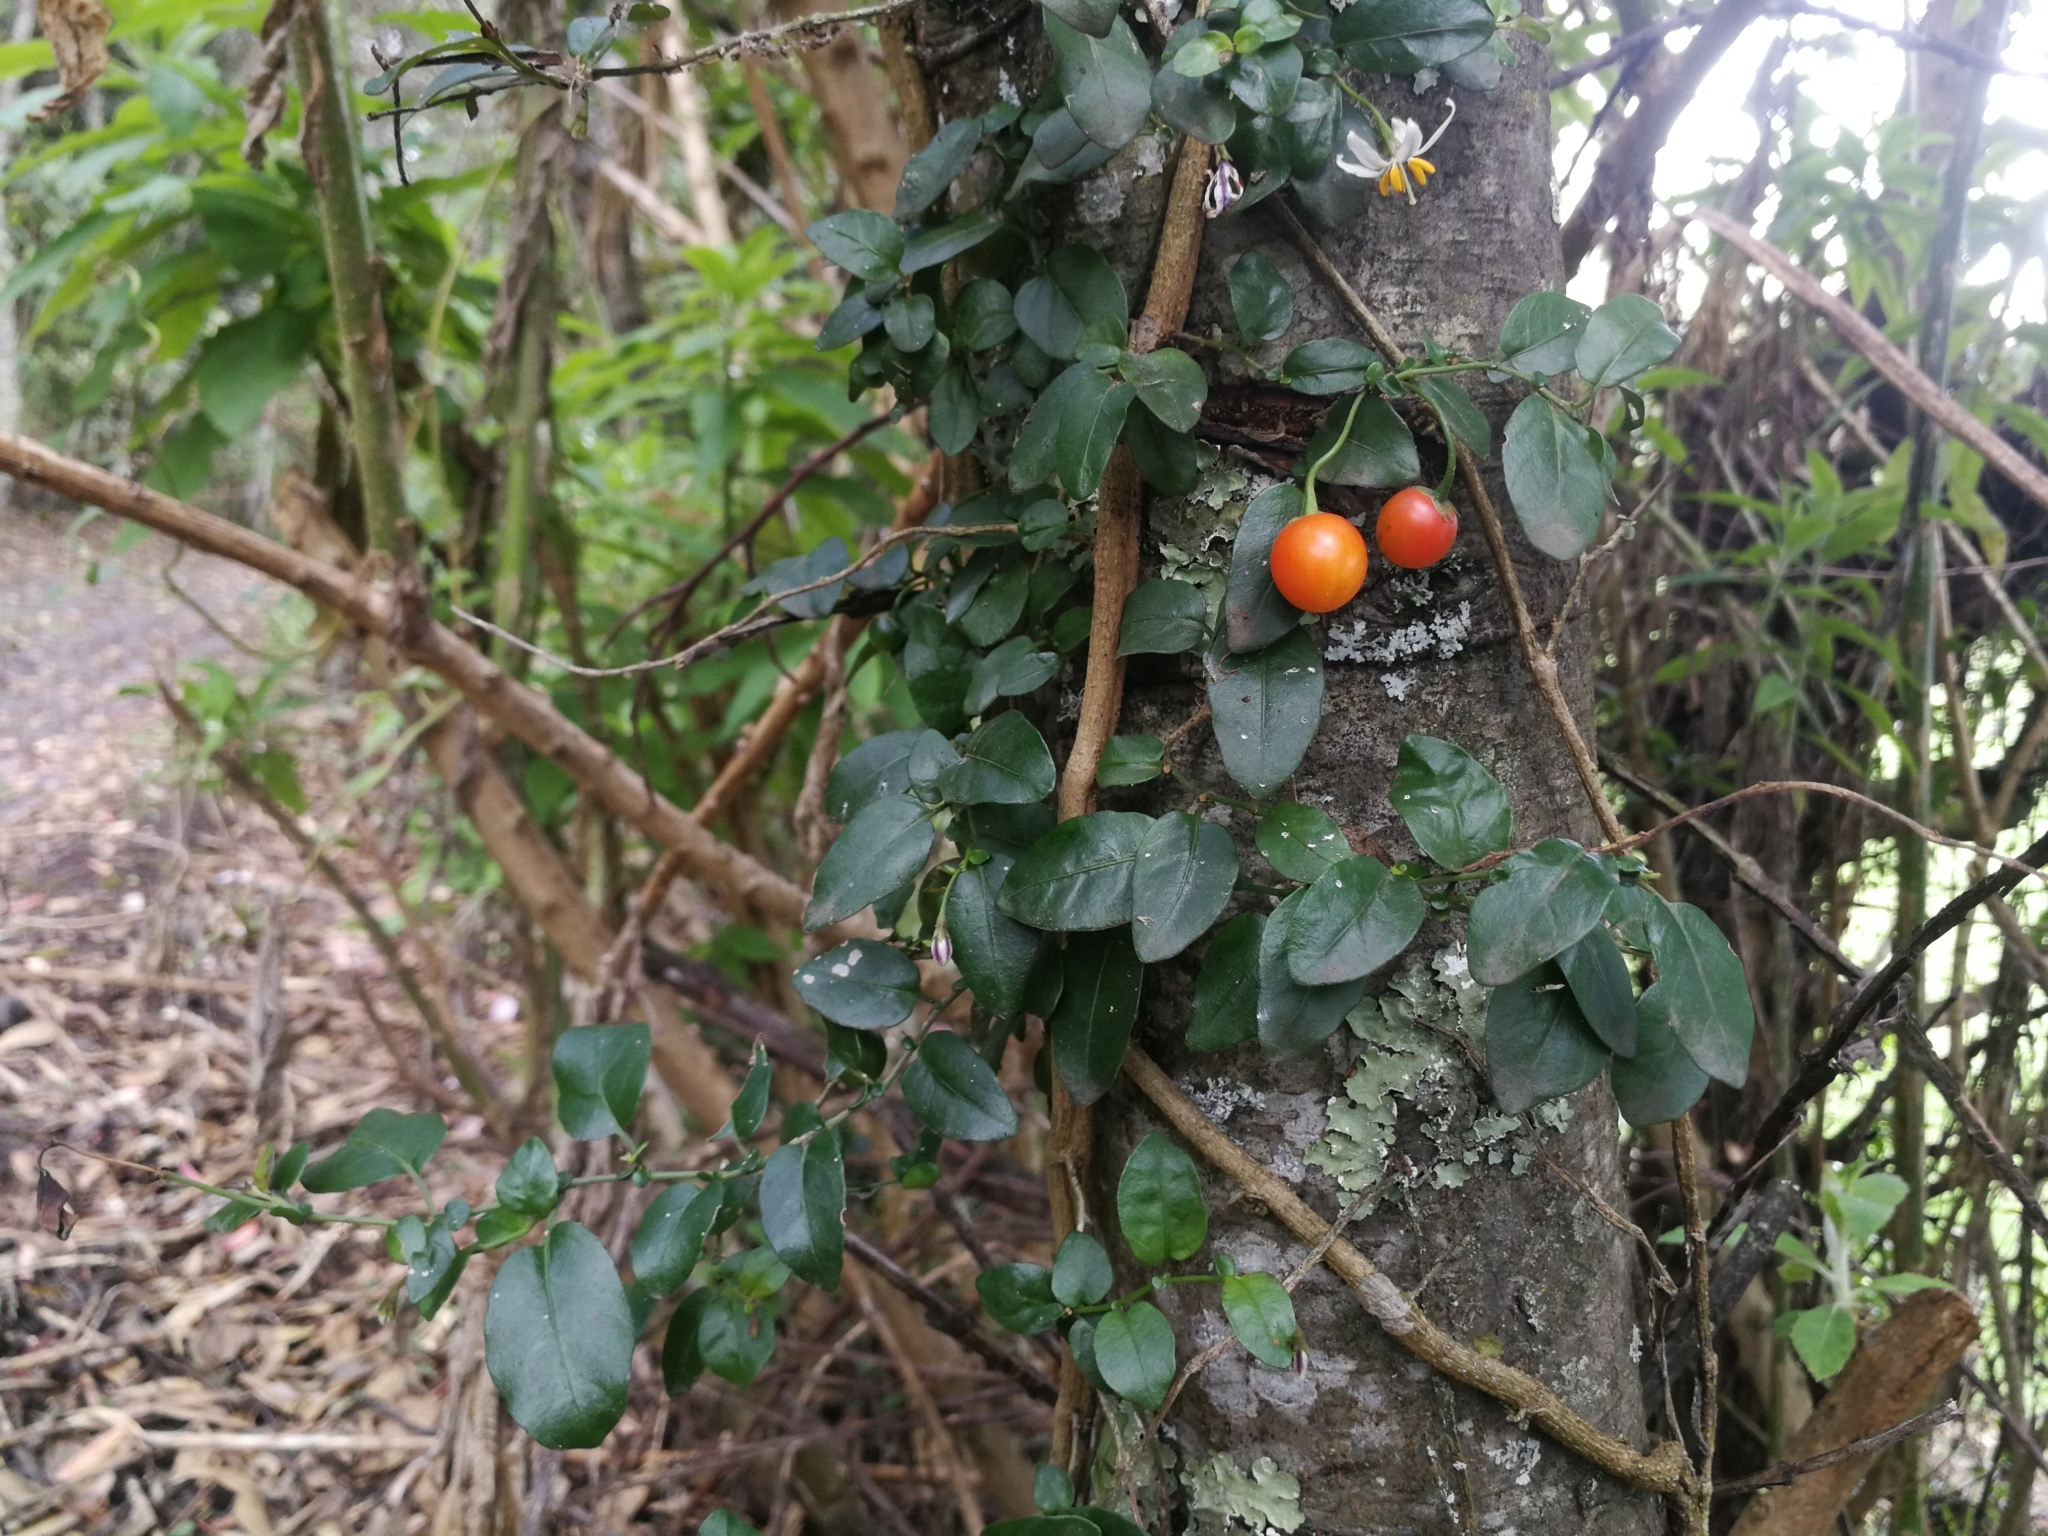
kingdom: Plantae
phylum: Tracheophyta
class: Magnoliopsida
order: Solanales
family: Solanaceae
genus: Solanum
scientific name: Solanum brevifolium
